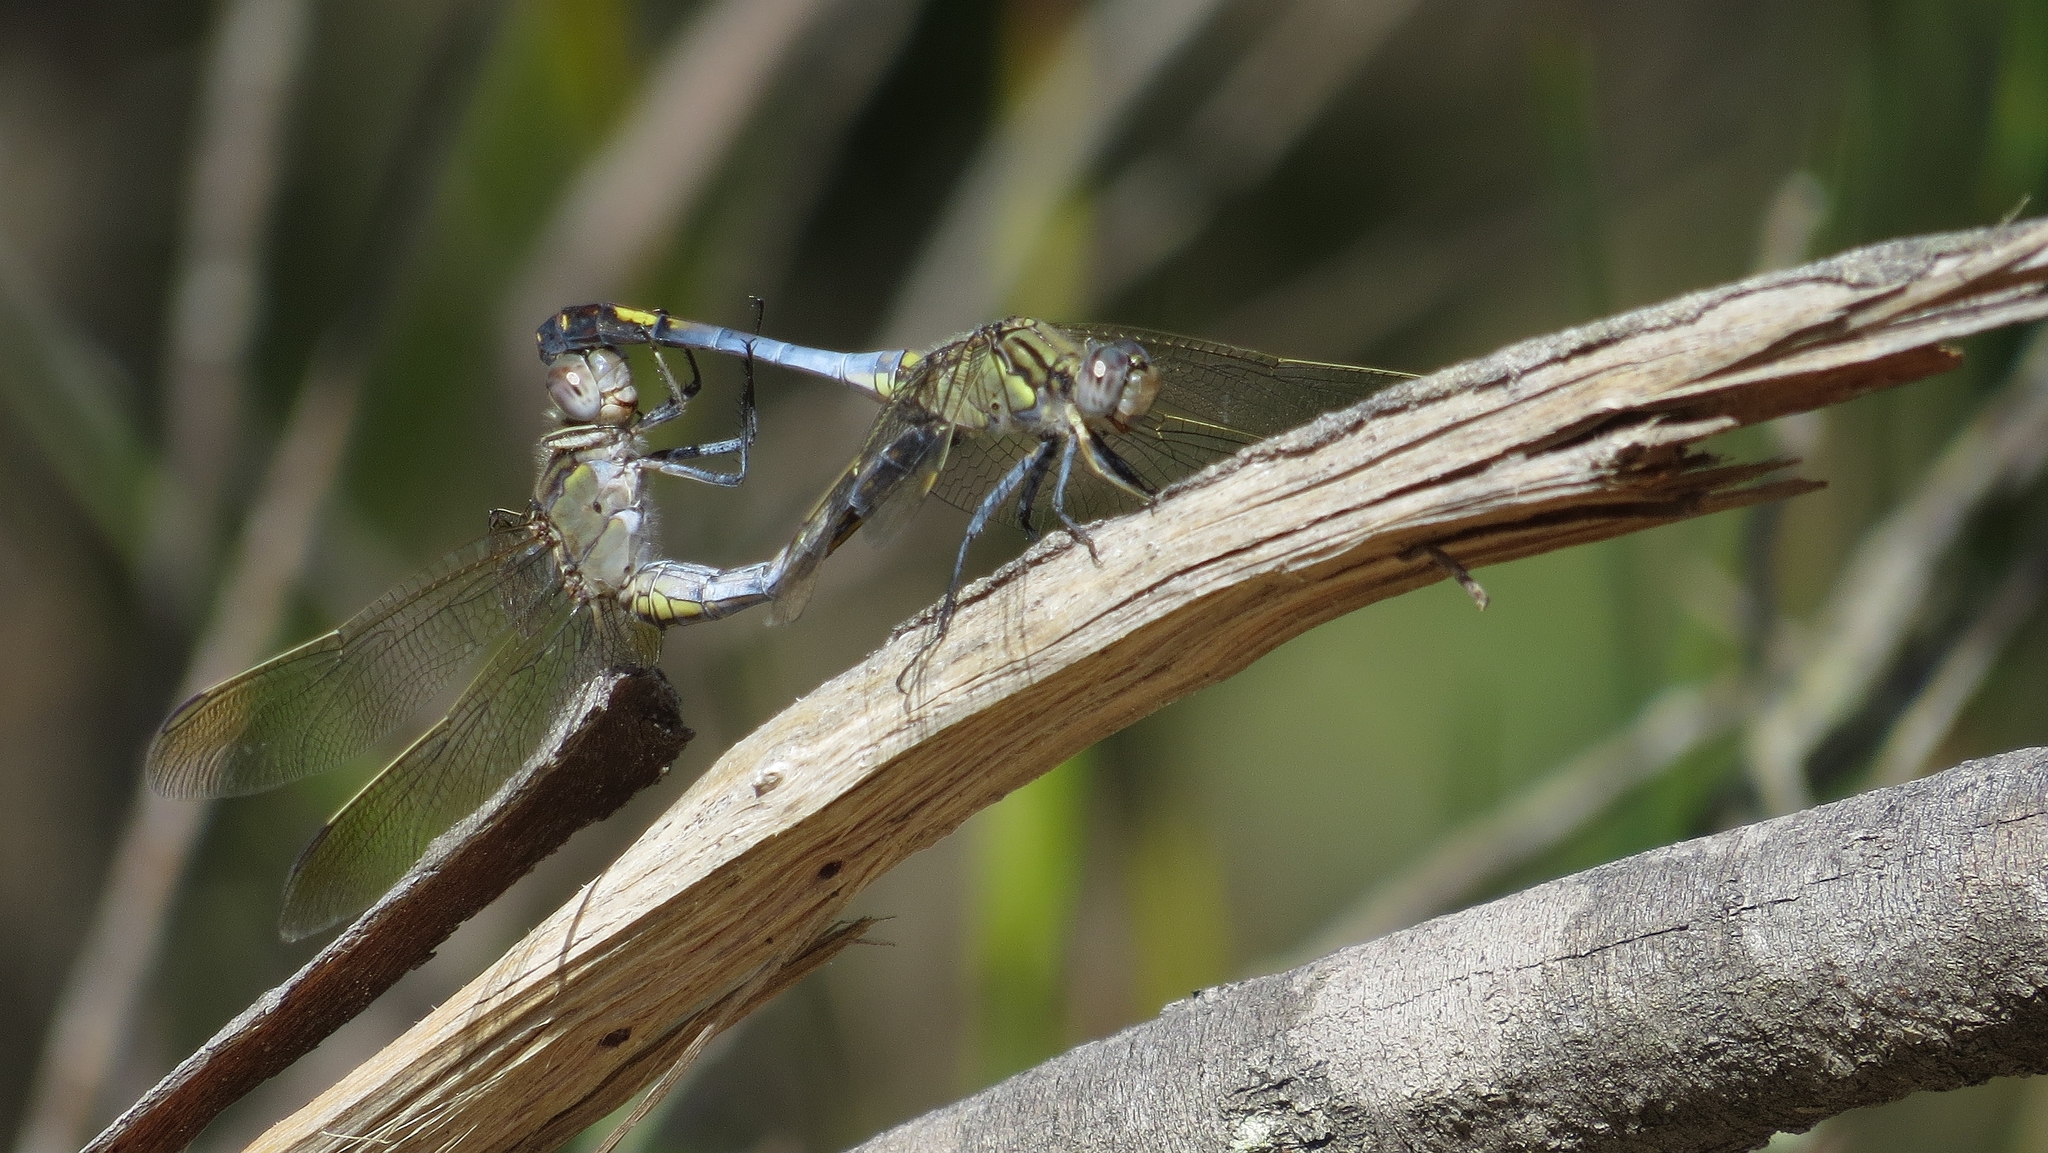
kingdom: Animalia
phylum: Arthropoda
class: Insecta
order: Odonata
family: Libellulidae
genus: Orthetrum
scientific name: Orthetrum caledonicum
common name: Blue skimmer
